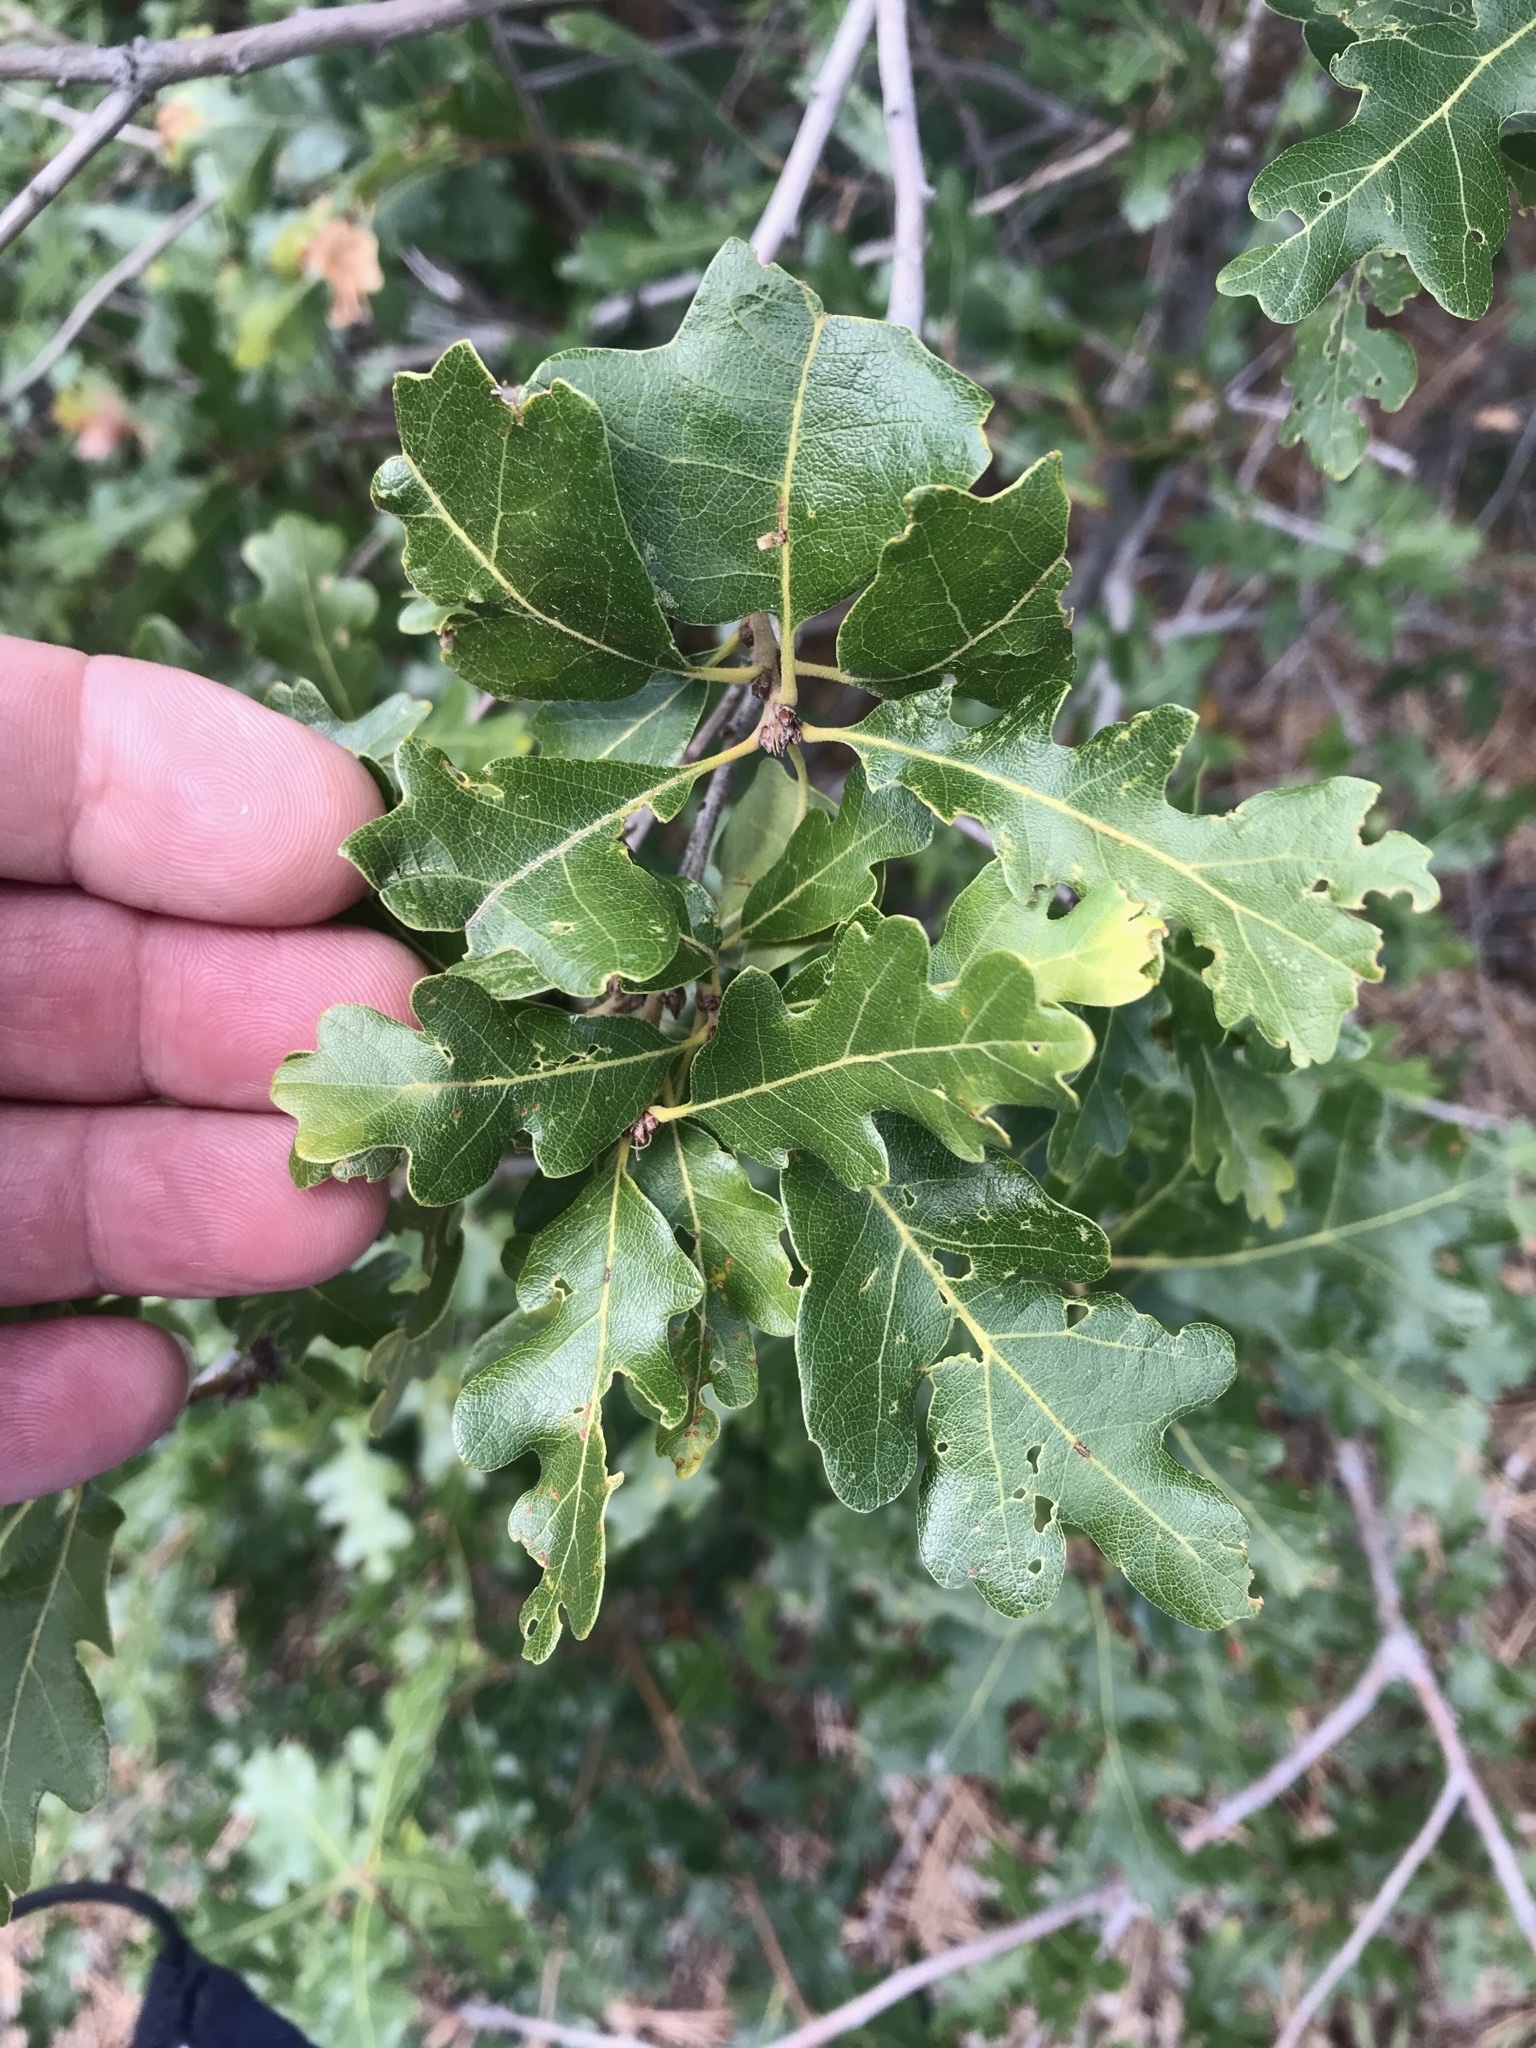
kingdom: Plantae
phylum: Tracheophyta
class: Magnoliopsida
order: Fagales
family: Fagaceae
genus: Quercus
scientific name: Quercus gambelii
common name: Gambel oak
